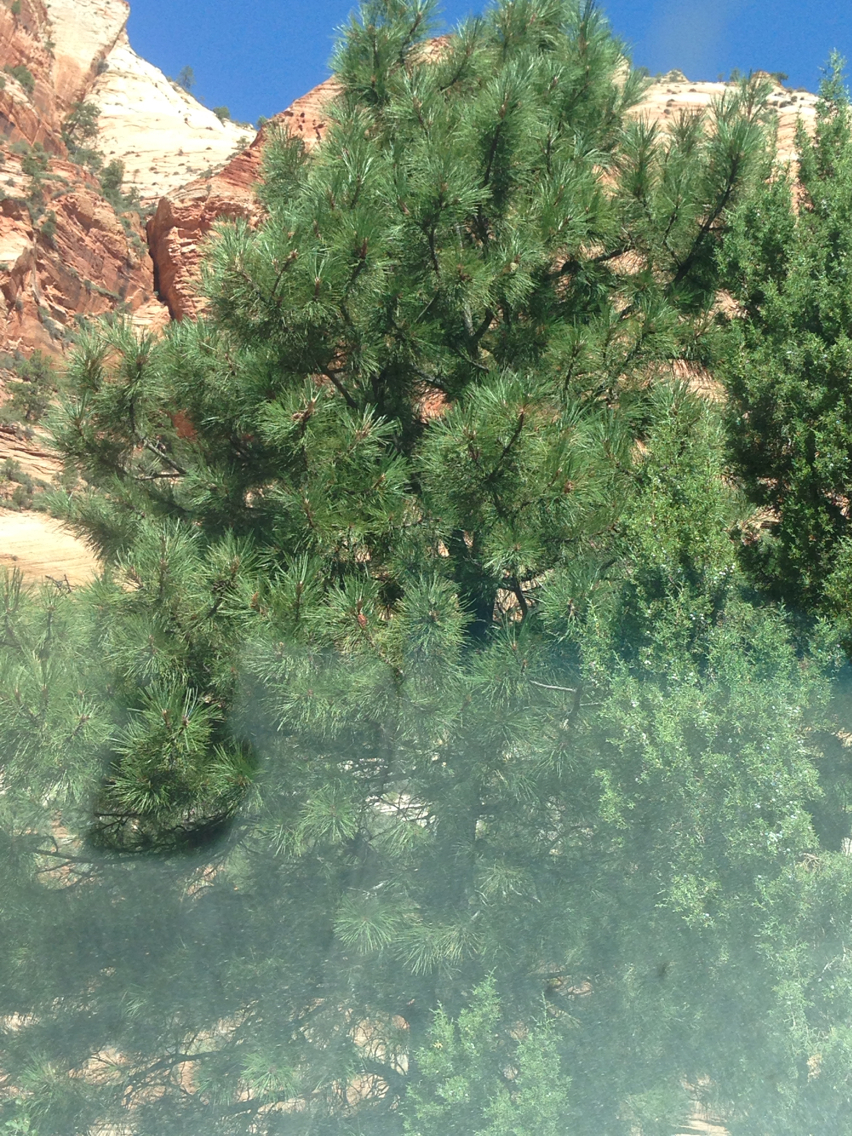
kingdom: Plantae
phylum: Tracheophyta
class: Pinopsida
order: Pinales
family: Pinaceae
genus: Pinus
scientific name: Pinus ponderosa
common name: Western yellow-pine
